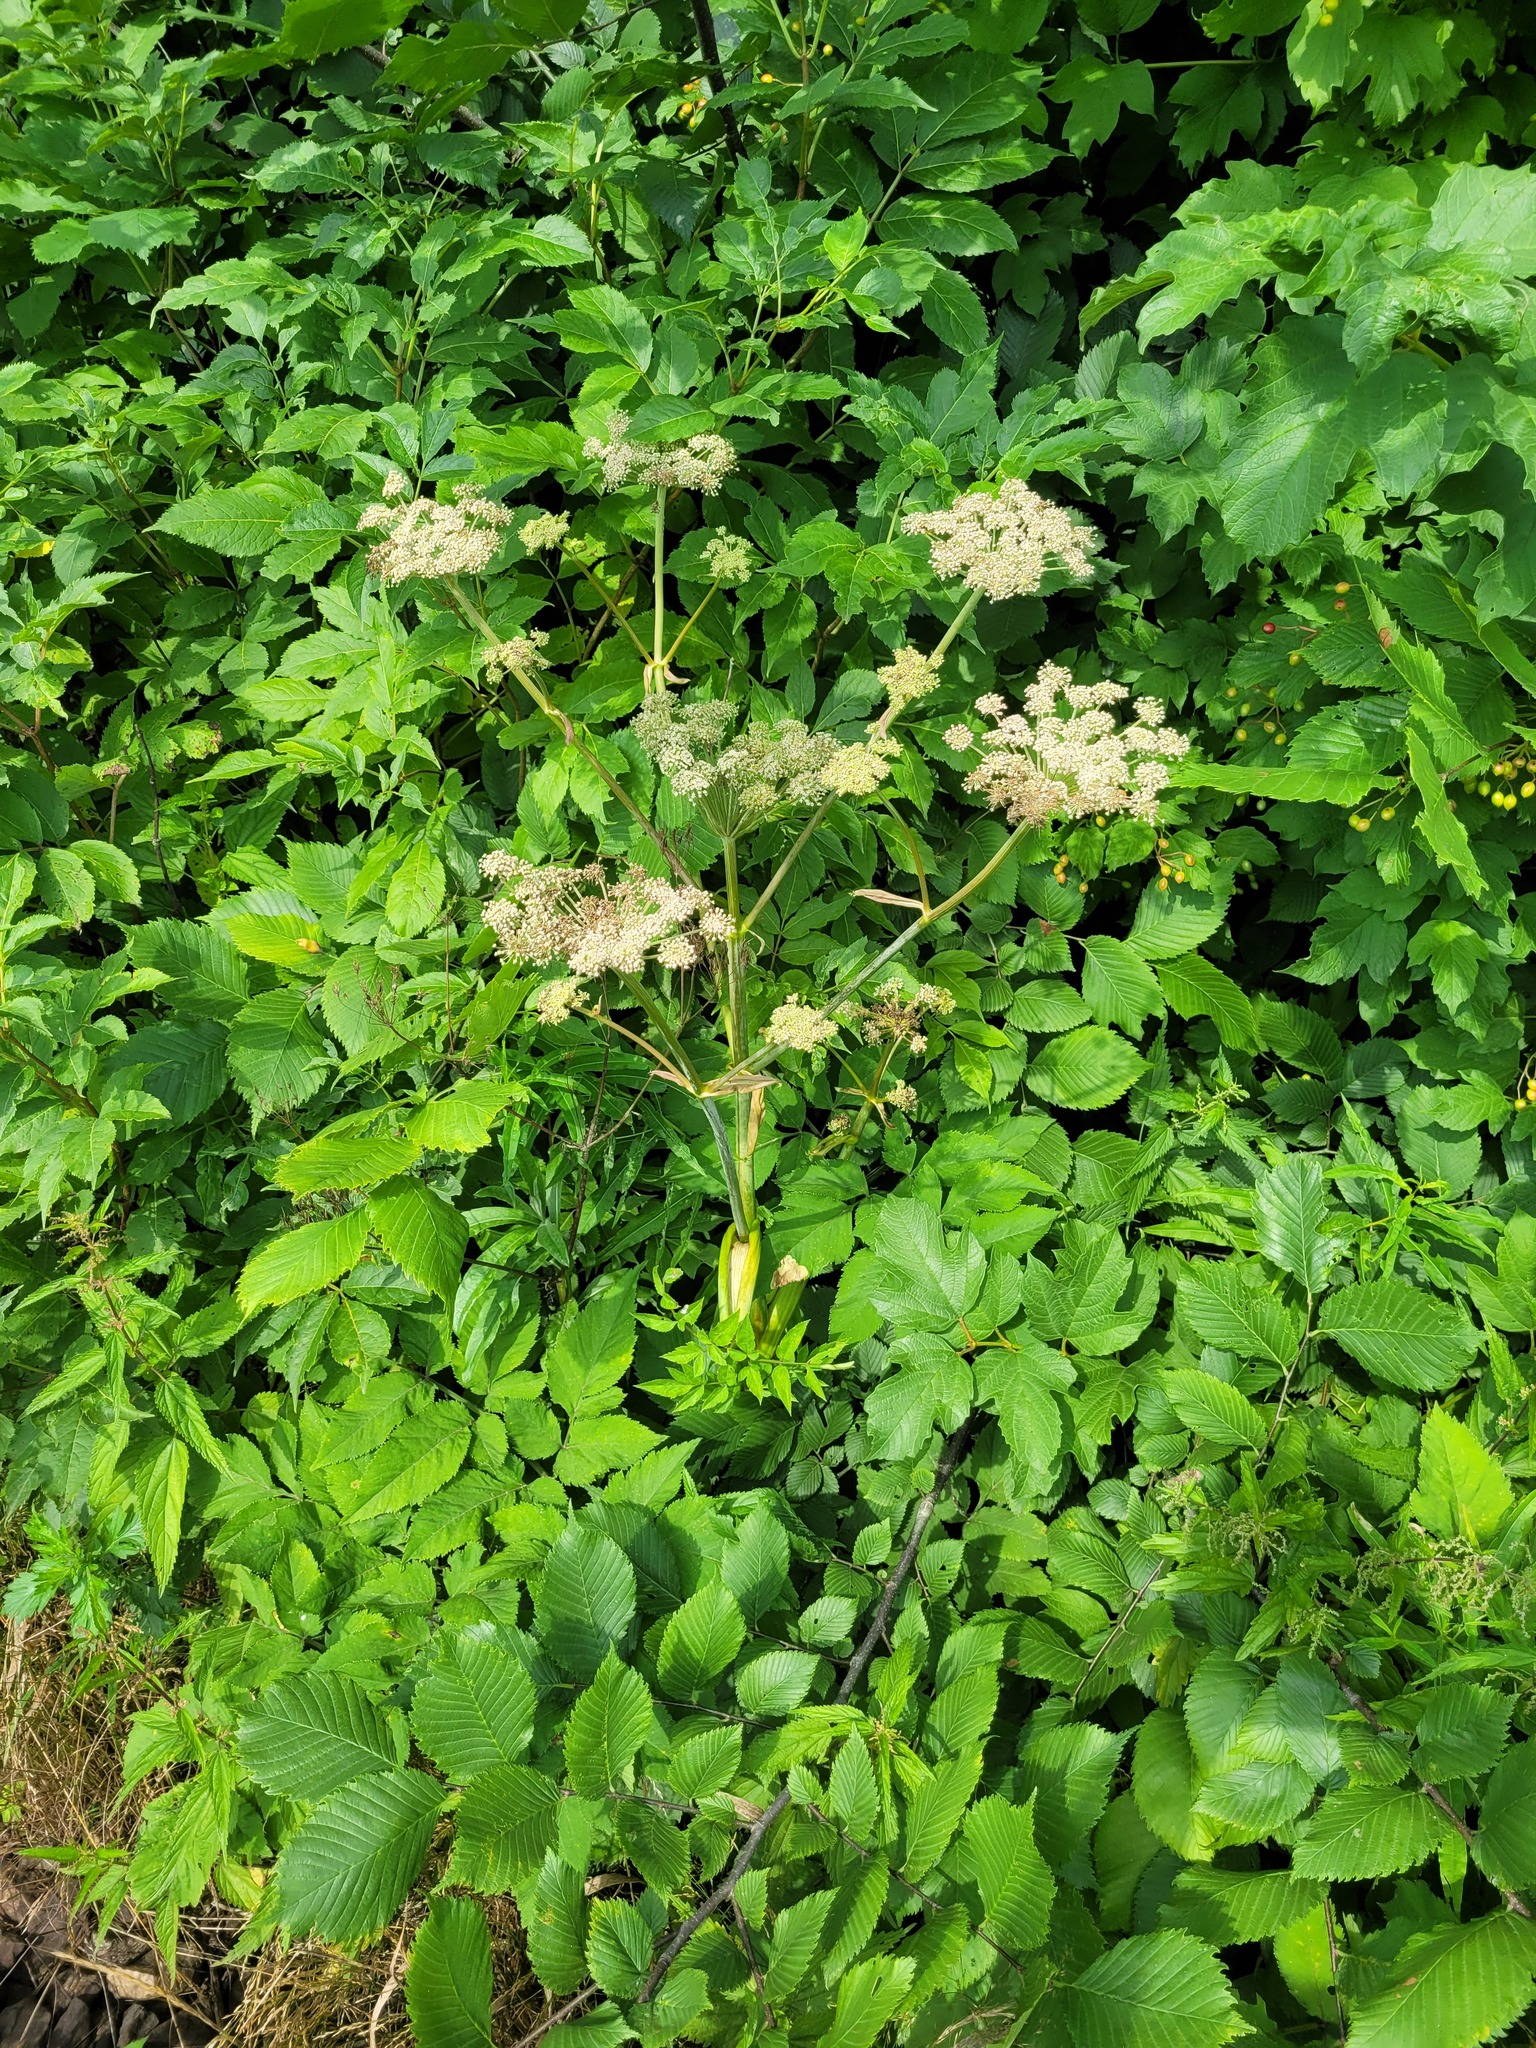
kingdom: Plantae
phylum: Tracheophyta
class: Magnoliopsida
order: Apiales
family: Apiaceae
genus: Angelica
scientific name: Angelica sylvestris
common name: Wild angelica
